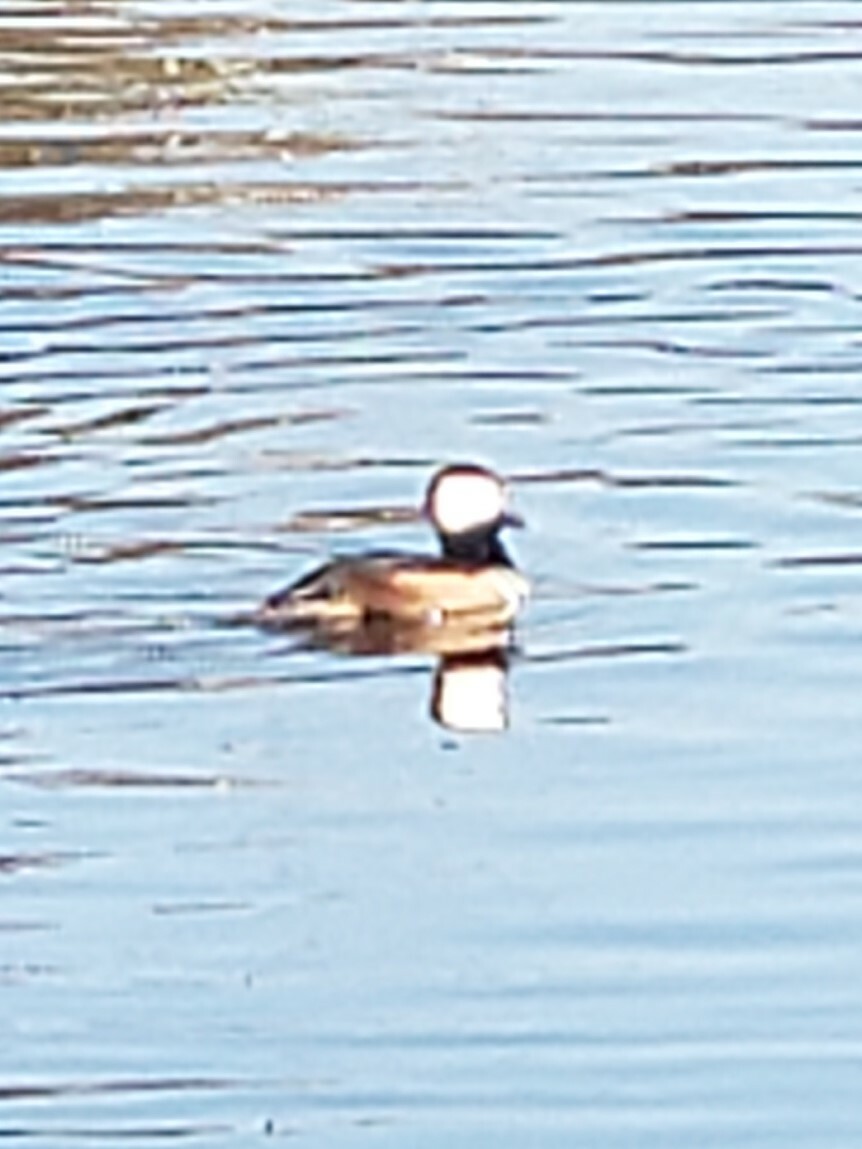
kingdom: Animalia
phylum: Chordata
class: Aves
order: Anseriformes
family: Anatidae
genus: Lophodytes
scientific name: Lophodytes cucullatus
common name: Hooded merganser
